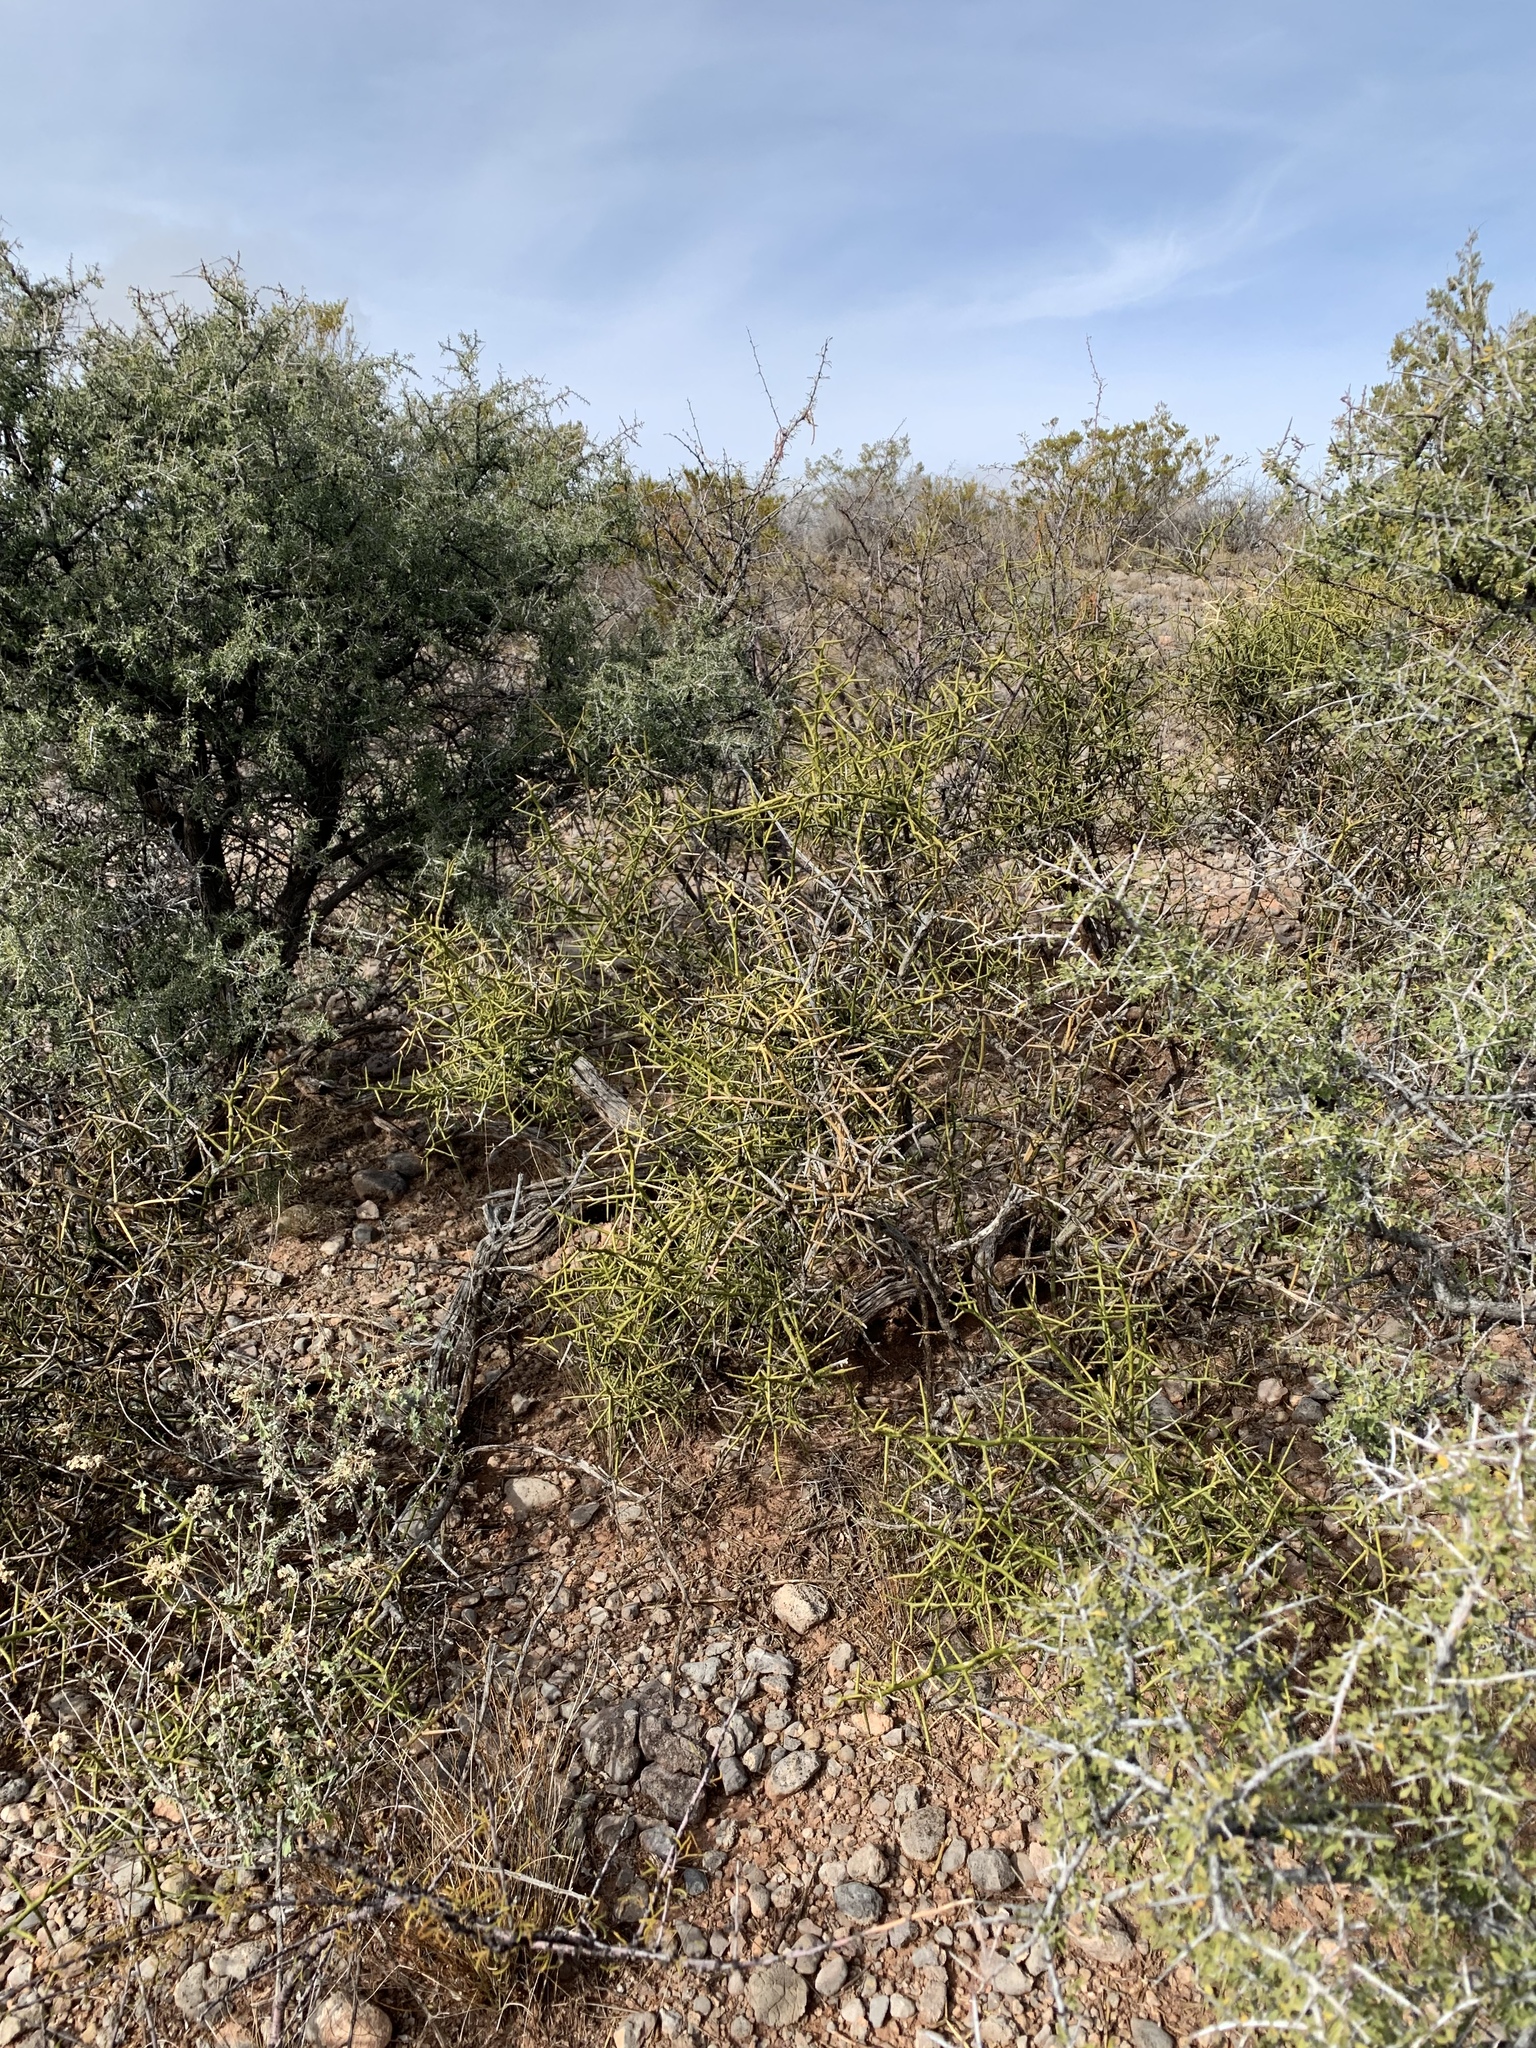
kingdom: Plantae
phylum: Tracheophyta
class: Magnoliopsida
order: Brassicales
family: Koeberliniaceae
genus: Koeberlinia
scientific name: Koeberlinia spinosa
